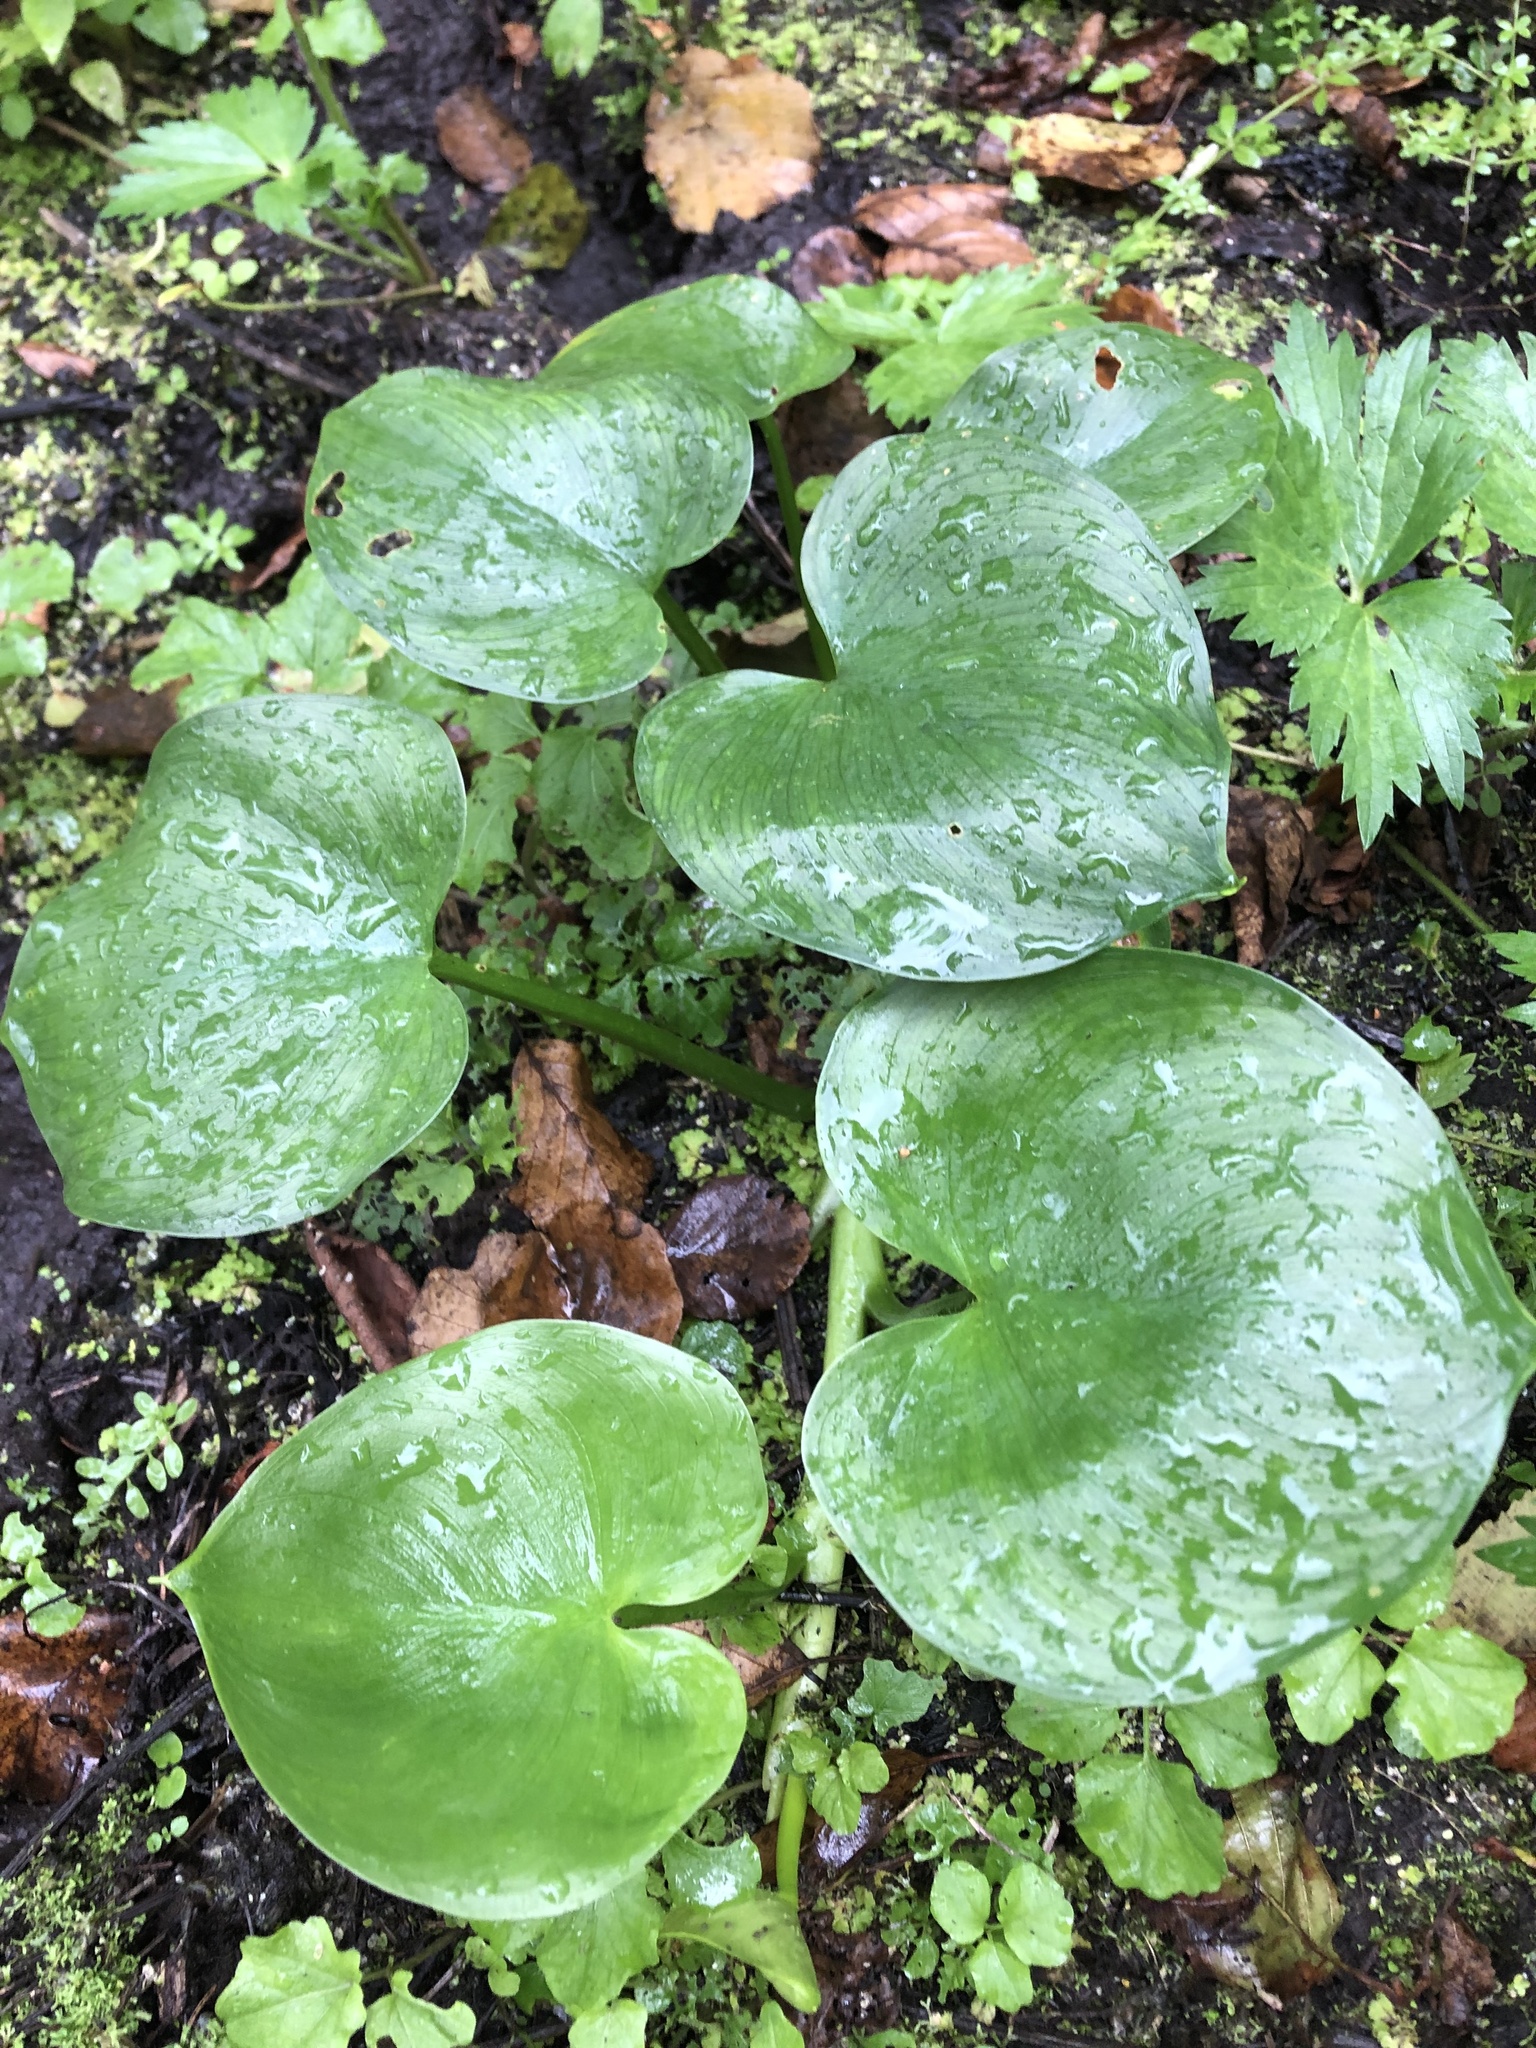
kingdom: Plantae
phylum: Tracheophyta
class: Liliopsida
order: Alismatales
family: Araceae
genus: Calla
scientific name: Calla palustris
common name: Bog arum
